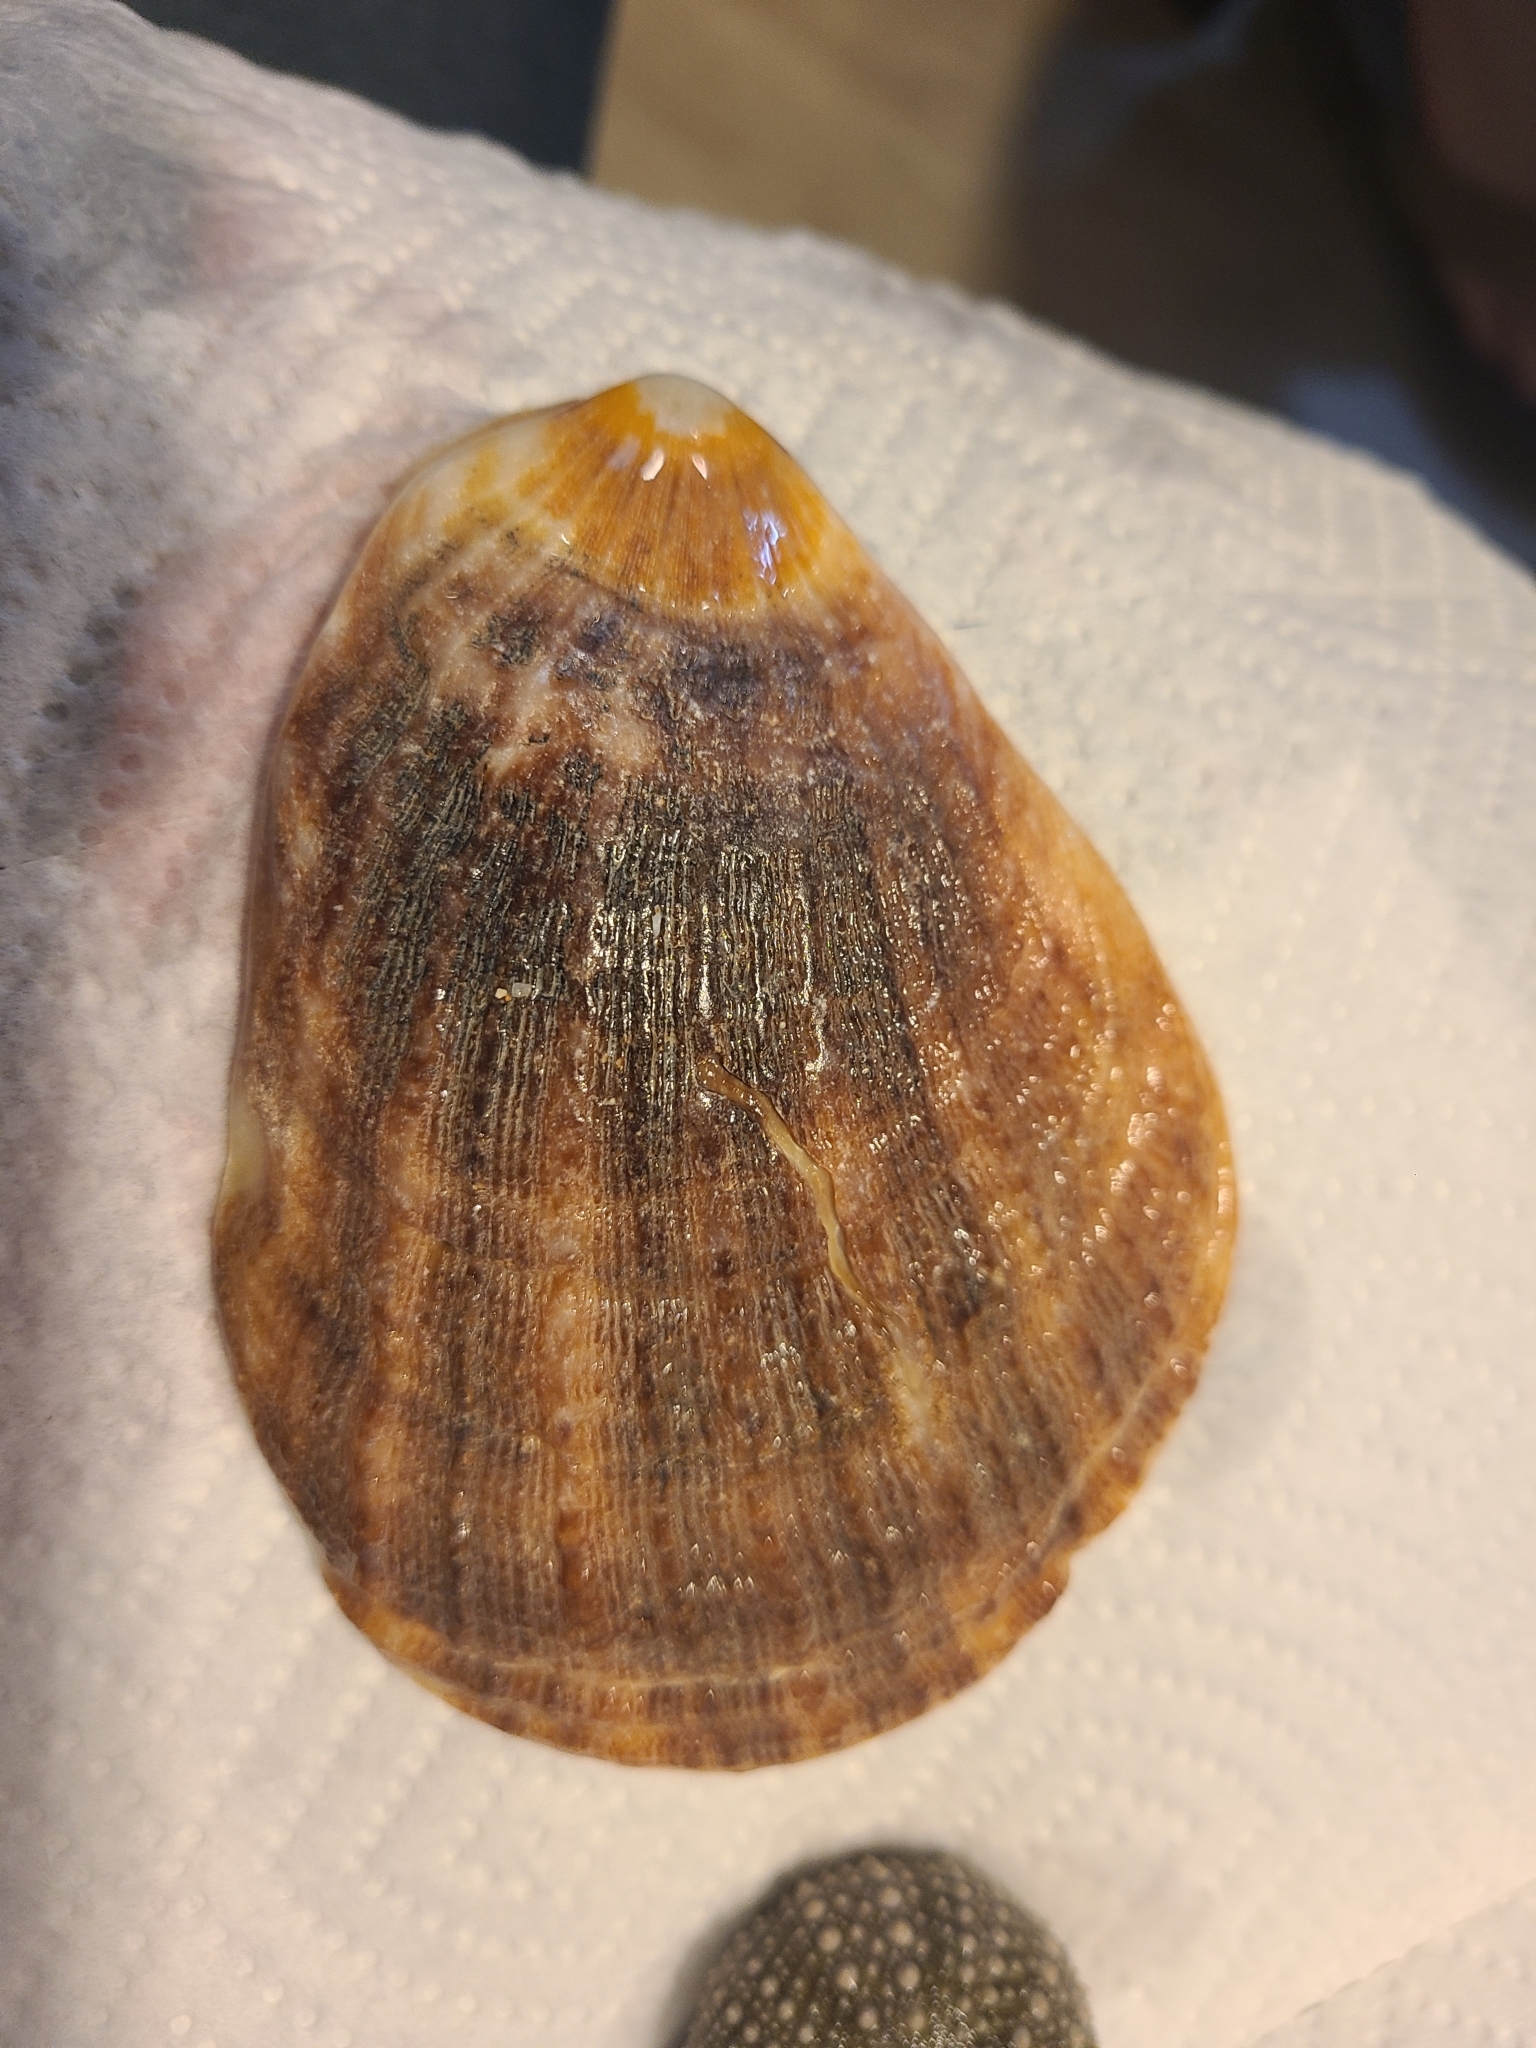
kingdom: Animalia
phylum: Mollusca
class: Bivalvia
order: Pectinida
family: Pectinidae
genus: Crassadoma
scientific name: Crassadoma gigantea
